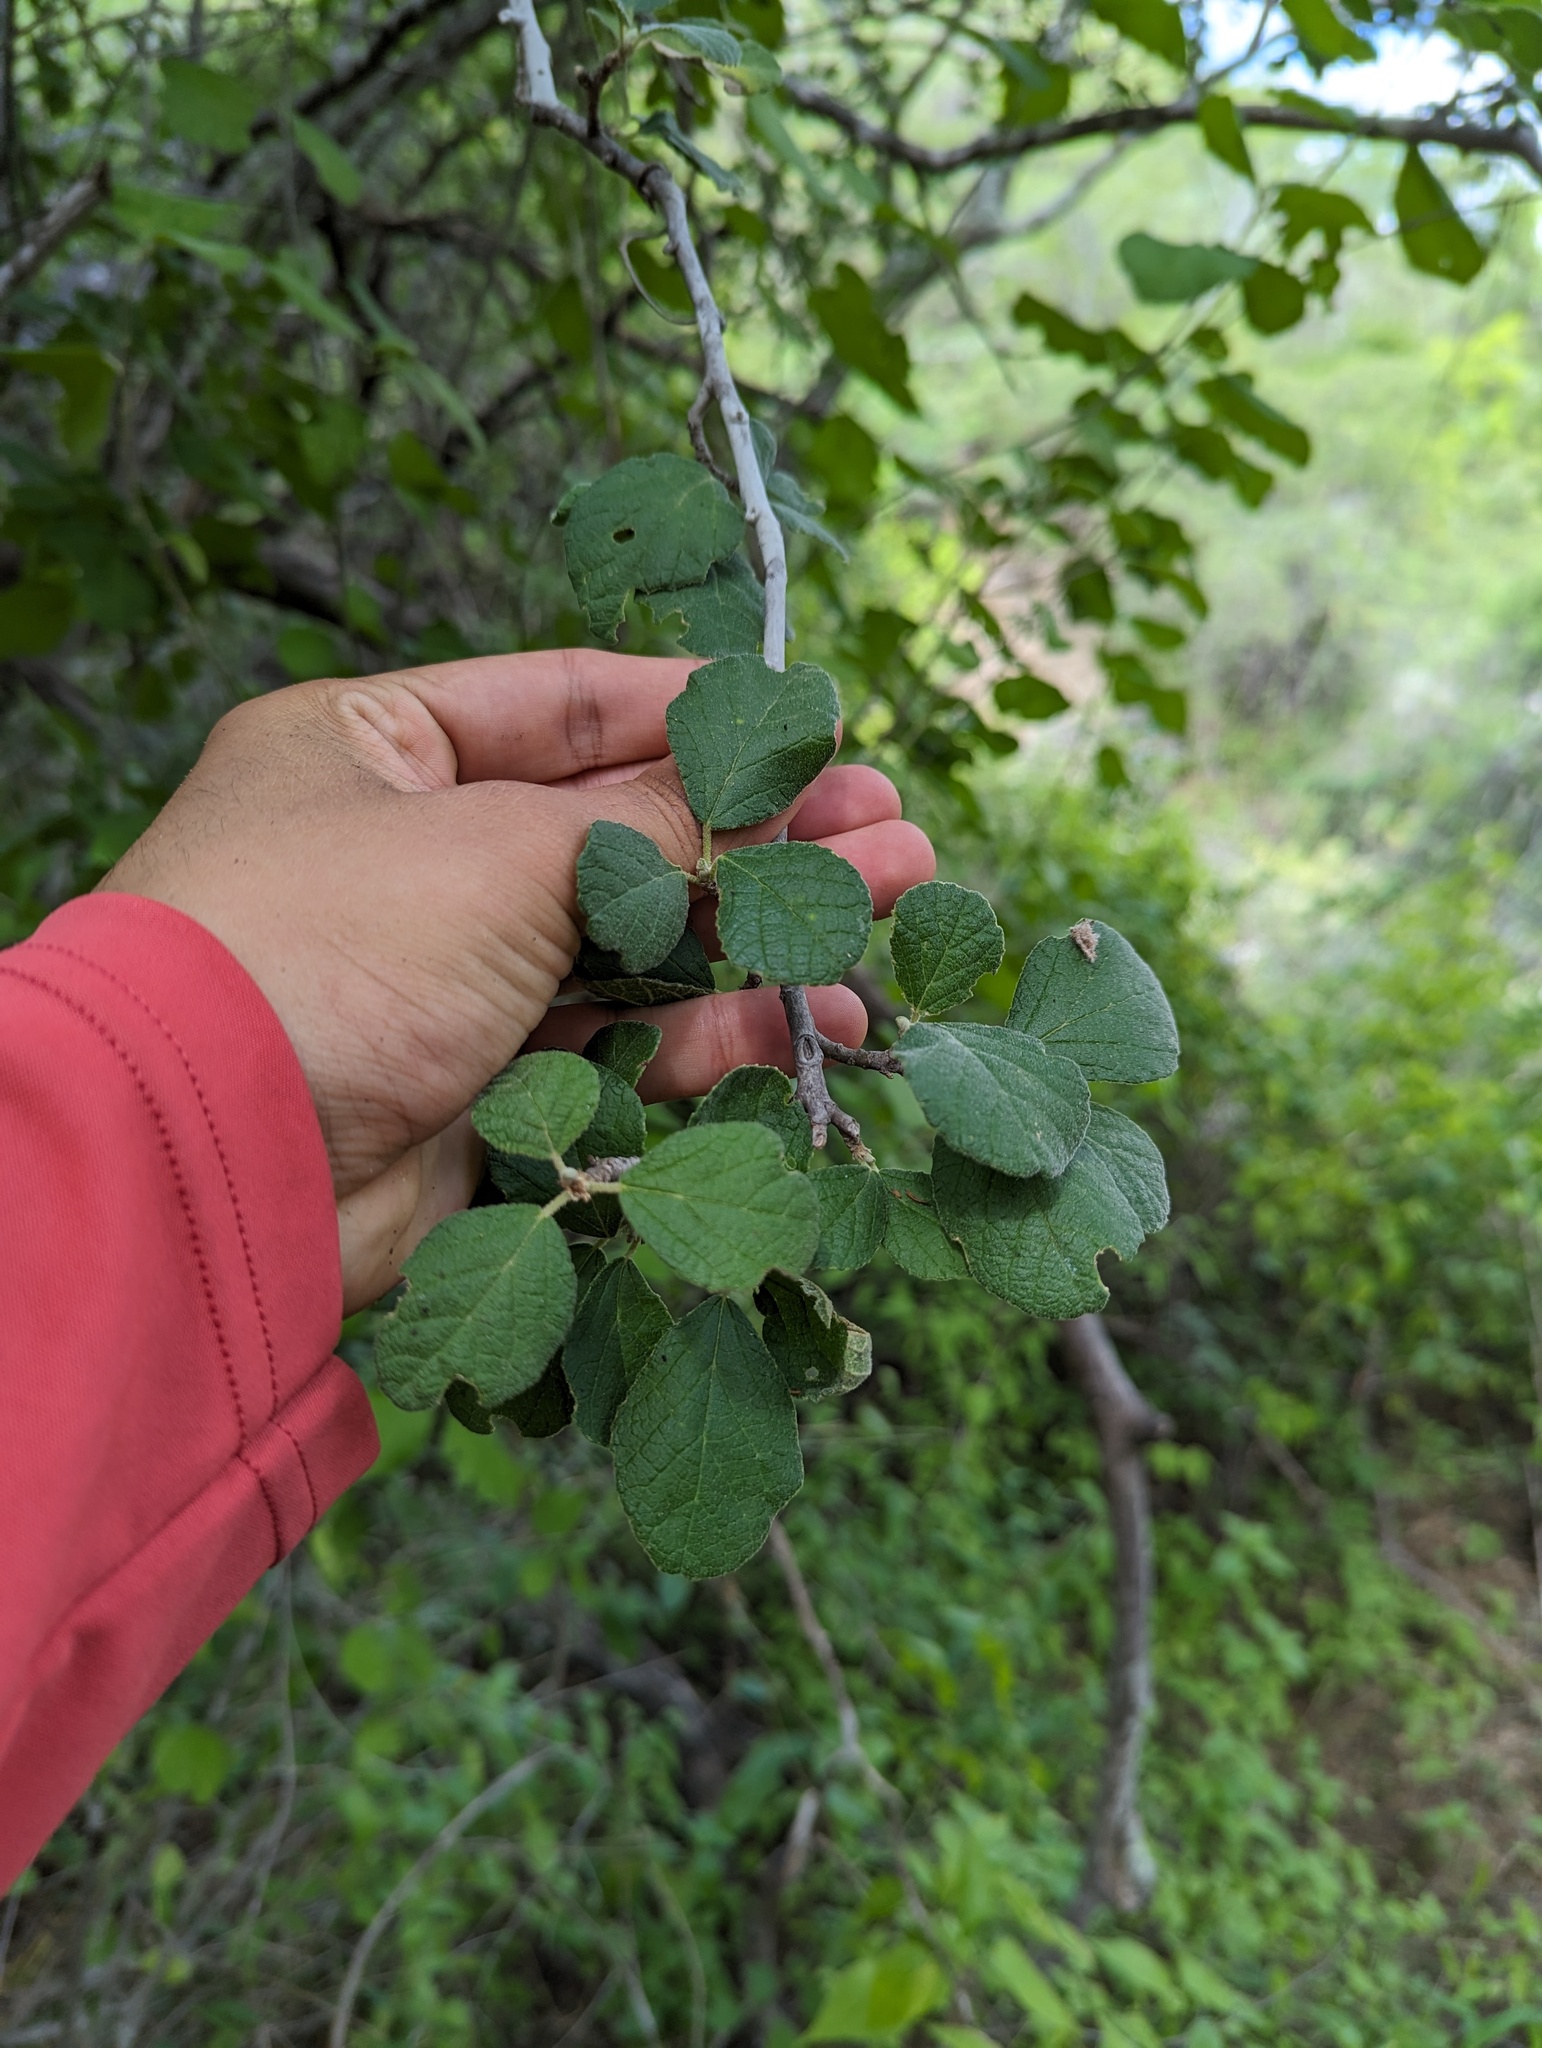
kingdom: Plantae
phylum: Tracheophyta
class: Magnoliopsida
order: Malpighiales
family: Euphorbiaceae
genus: Bernardia
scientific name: Bernardia viridis
